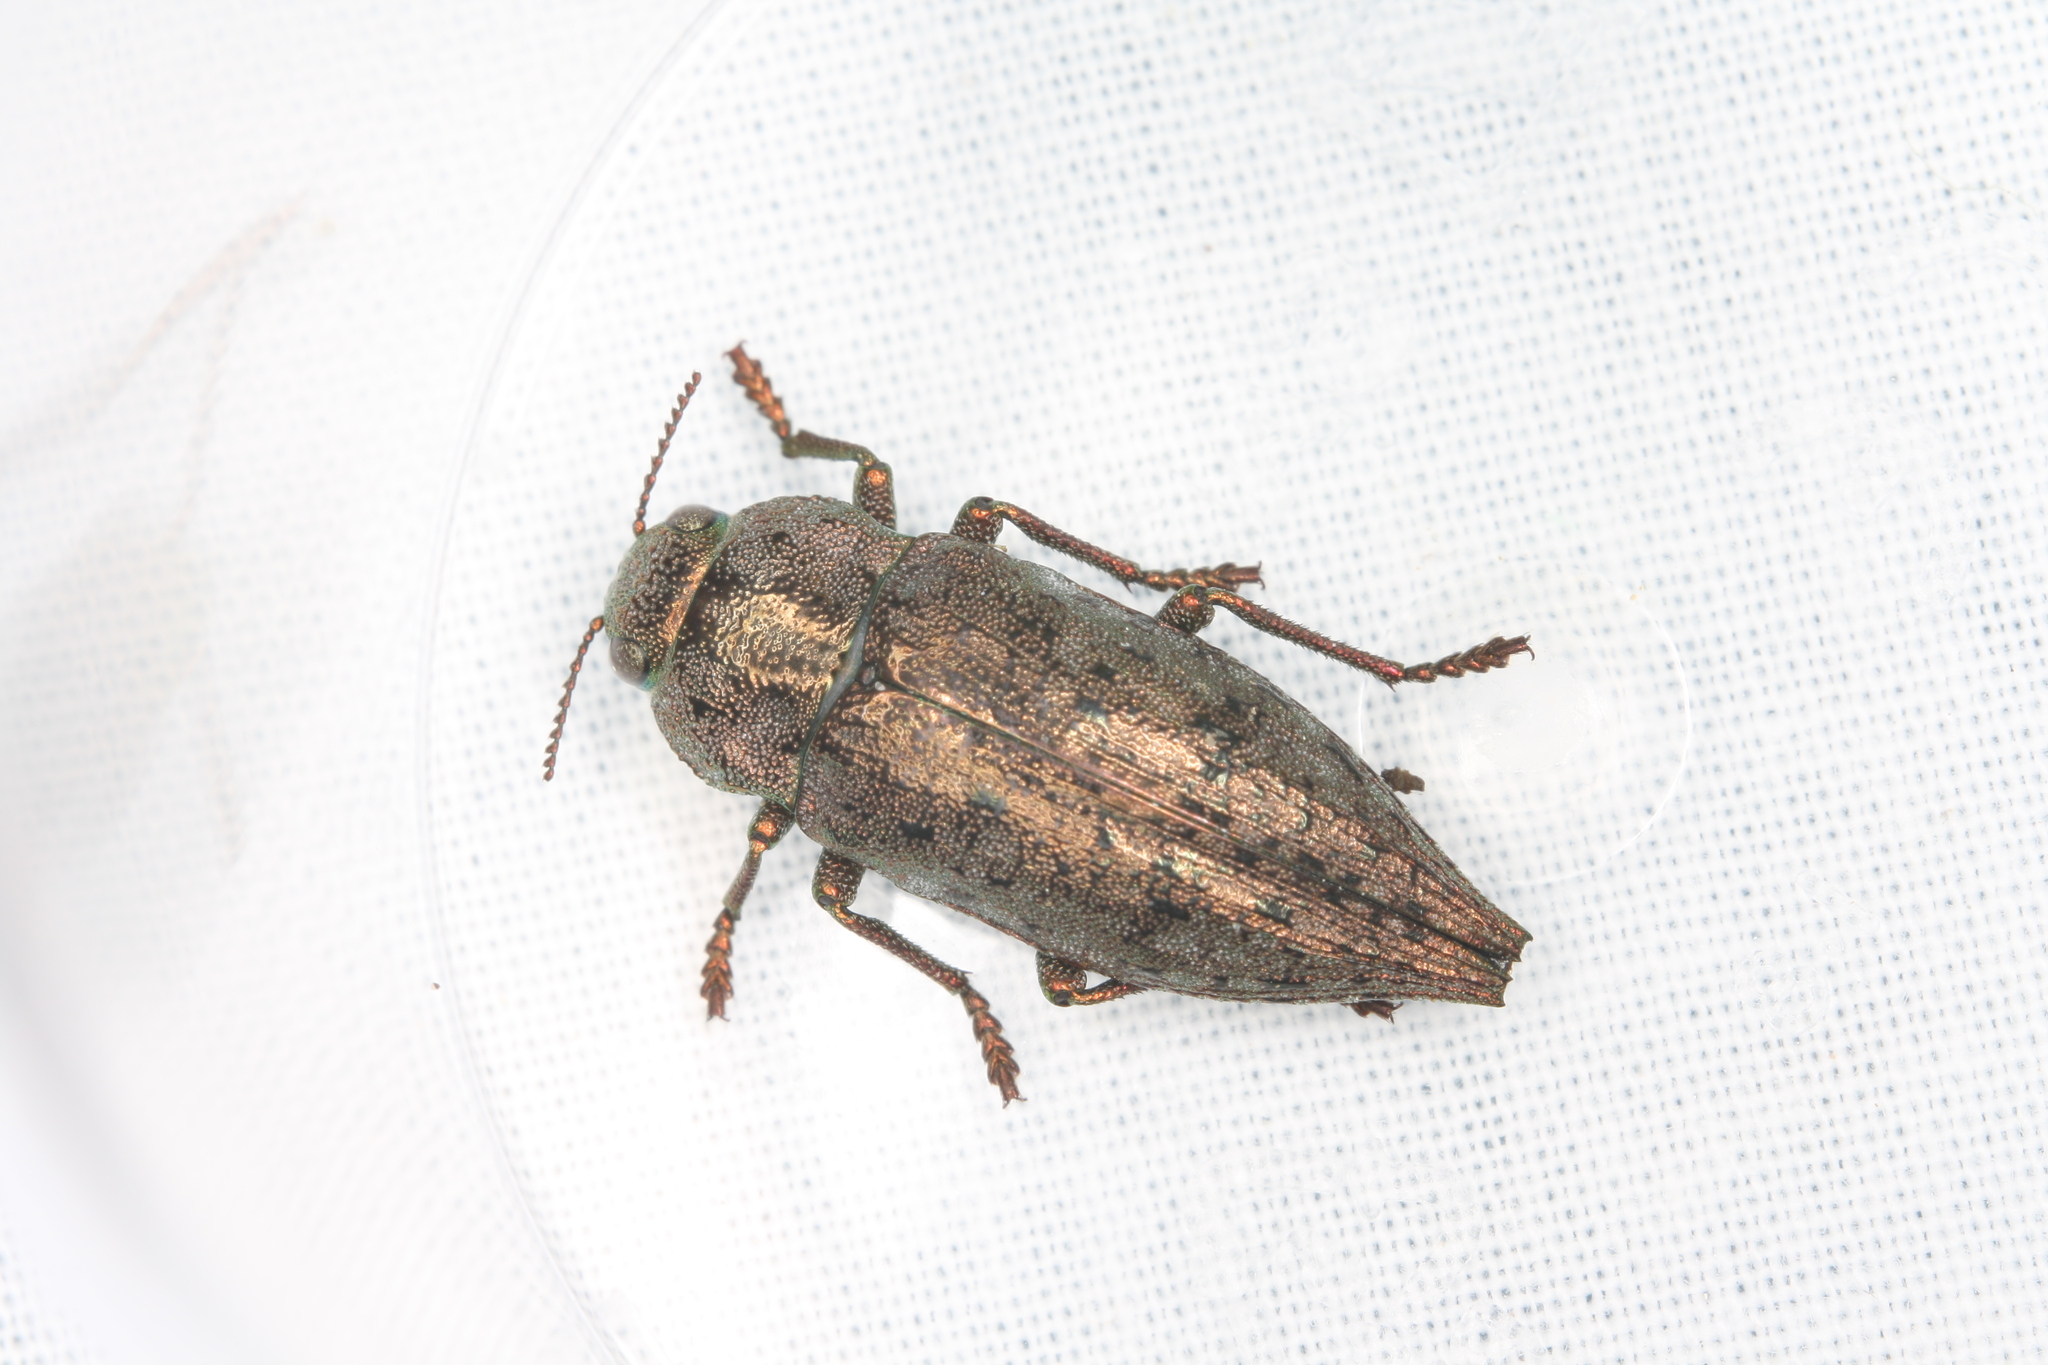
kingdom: Animalia
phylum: Arthropoda
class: Insecta
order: Coleoptera
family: Buprestidae
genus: Dicerca
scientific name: Dicerca berolinensis
